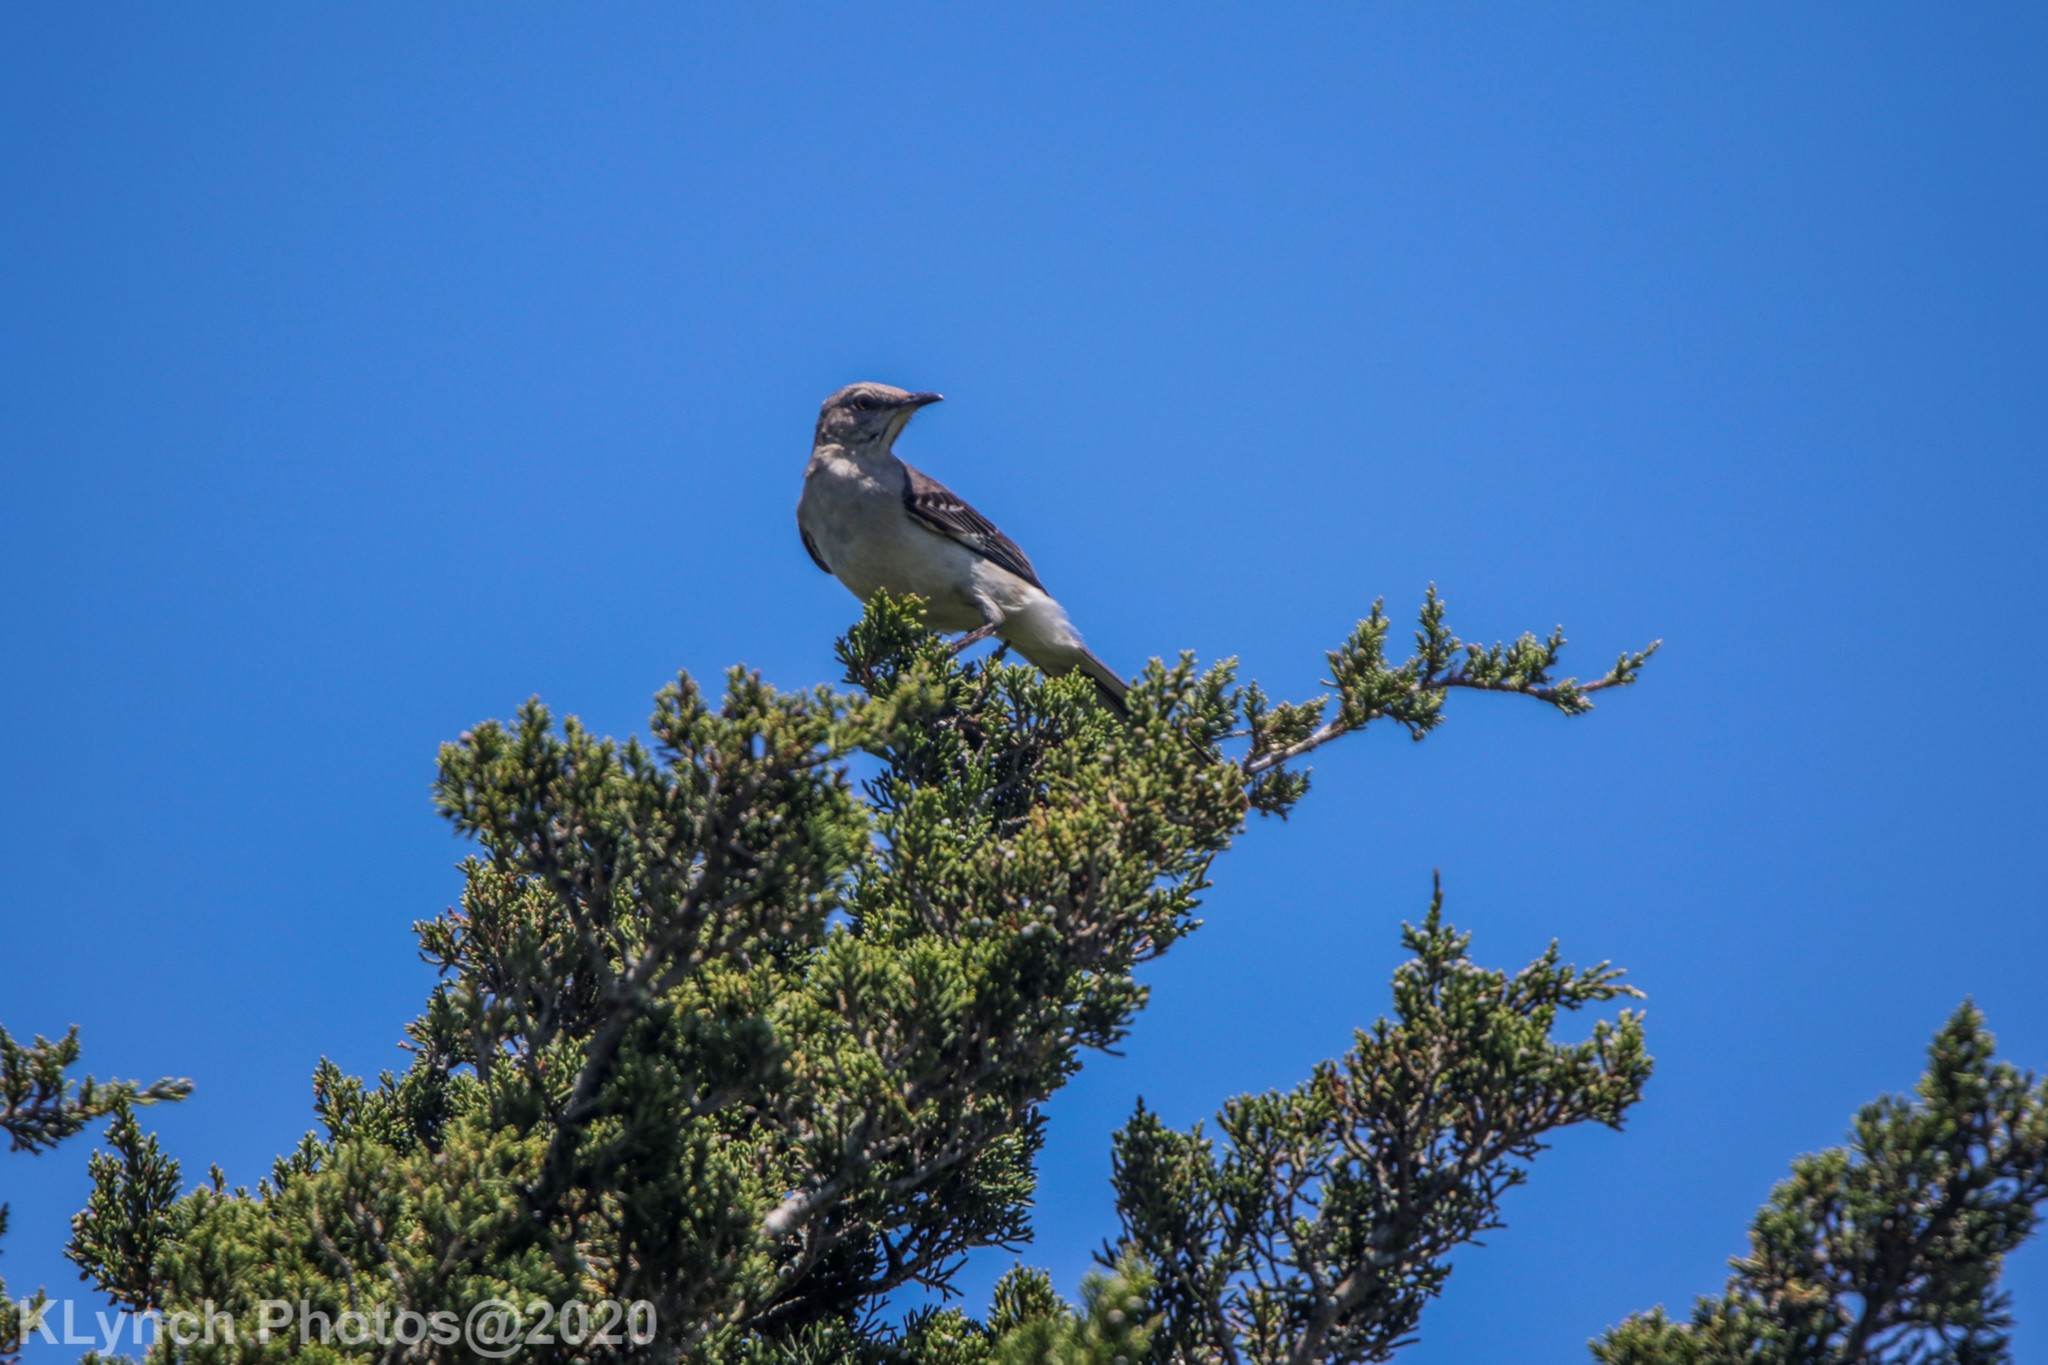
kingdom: Animalia
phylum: Chordata
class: Aves
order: Passeriformes
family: Mimidae
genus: Mimus
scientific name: Mimus polyglottos
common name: Northern mockingbird
